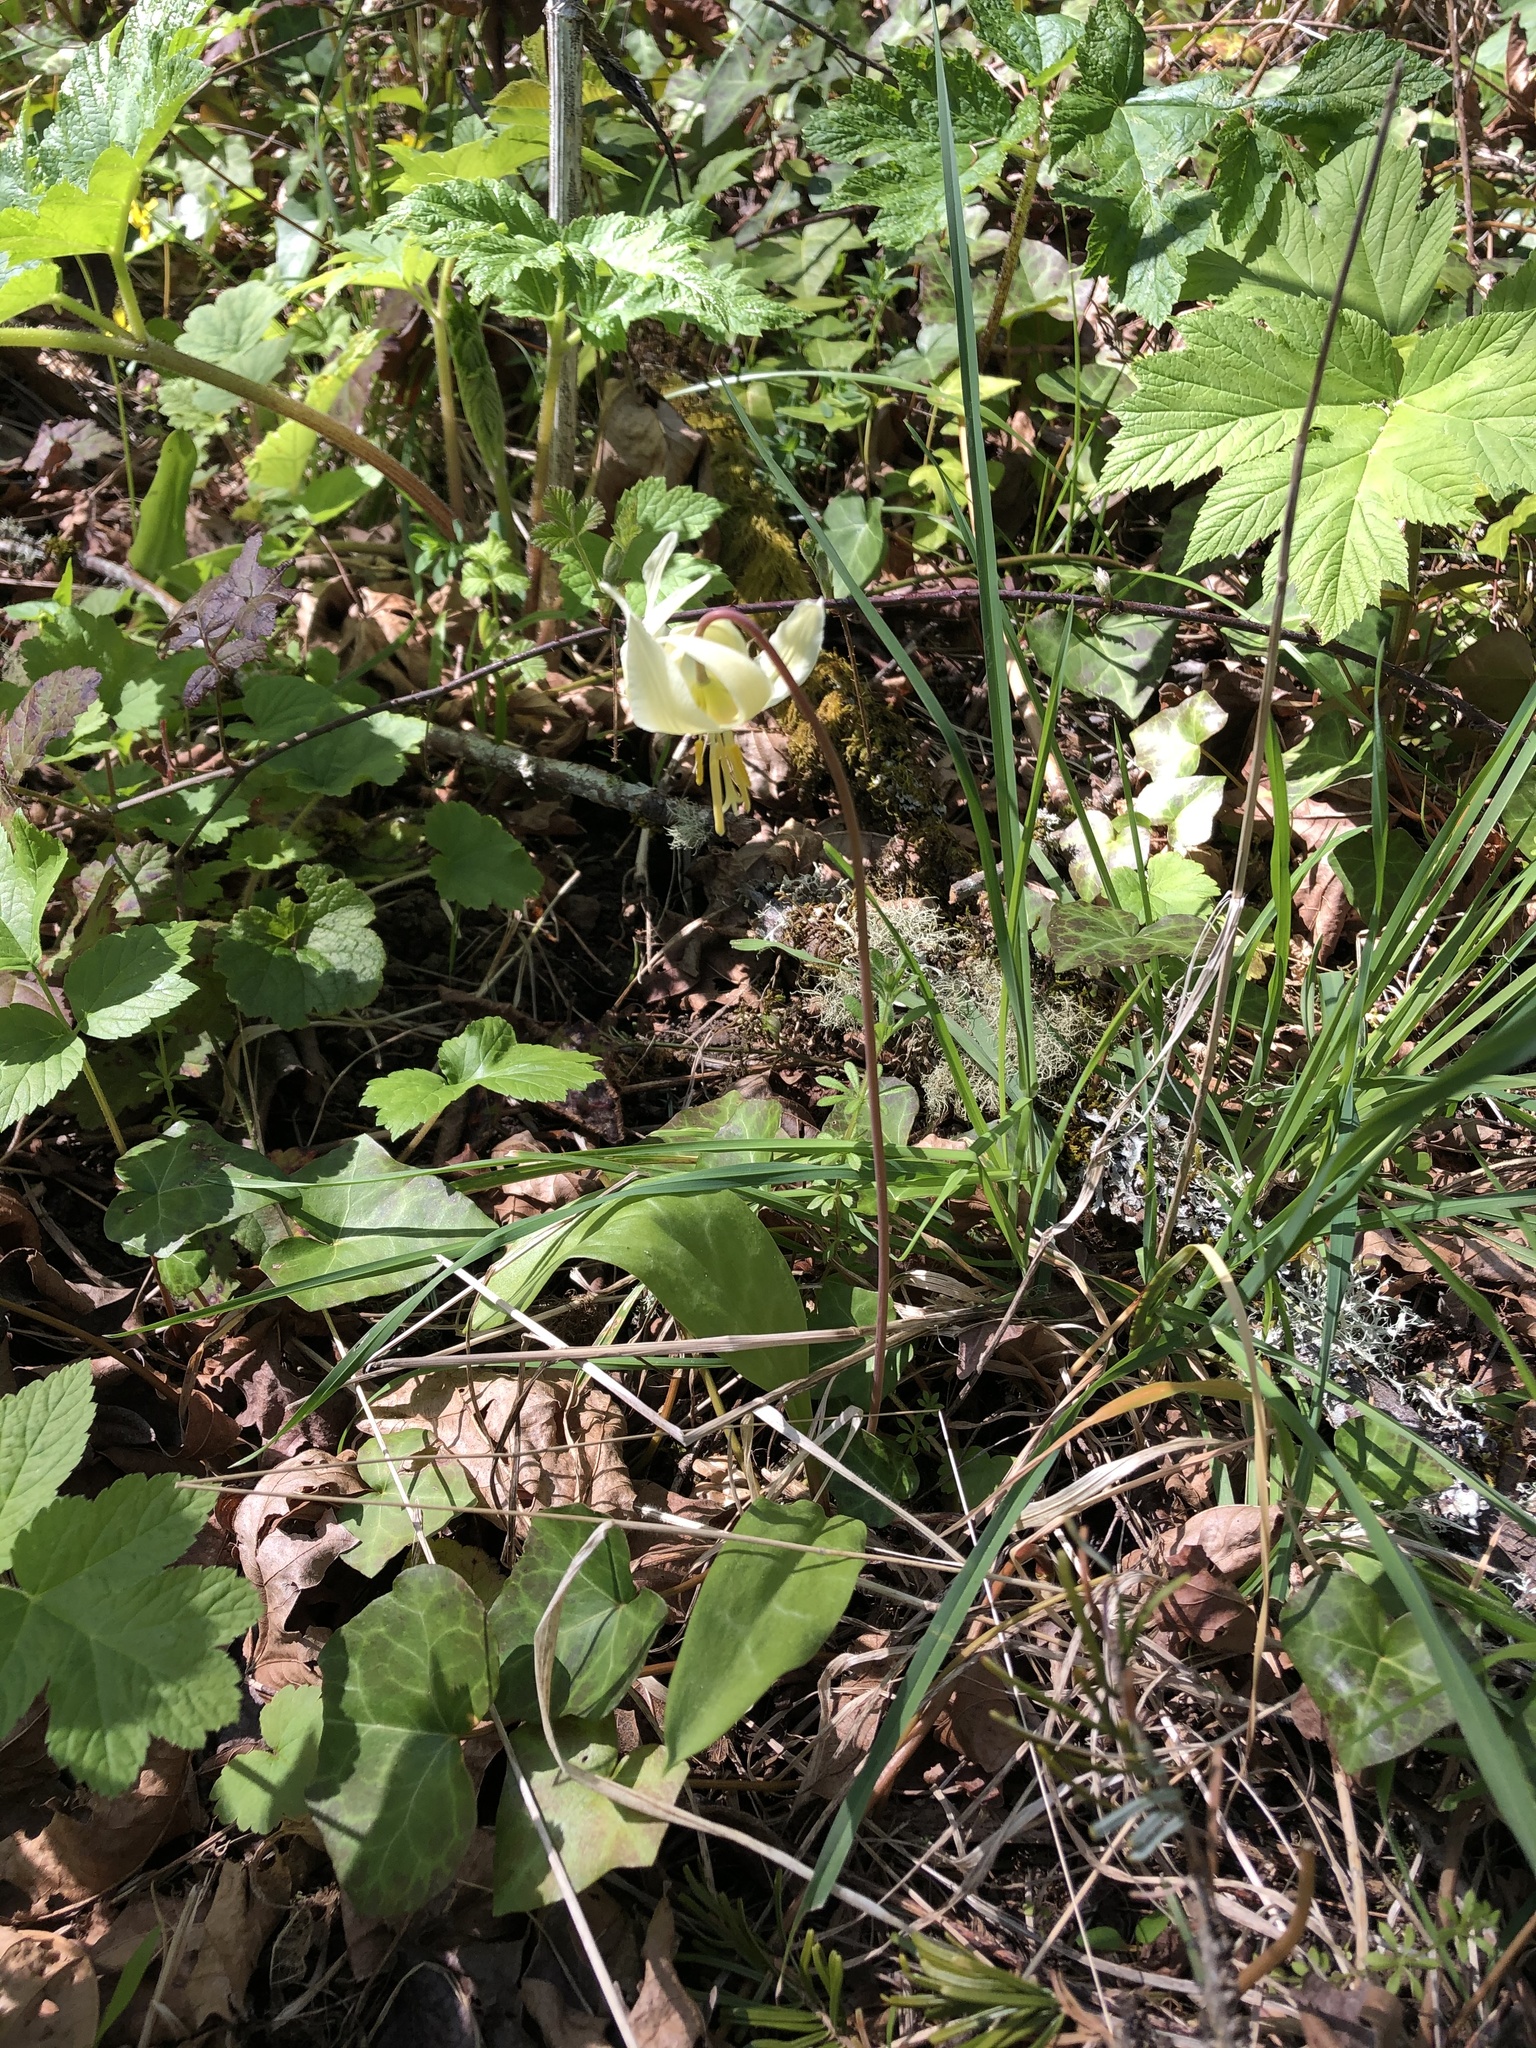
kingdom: Plantae
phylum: Tracheophyta
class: Liliopsida
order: Liliales
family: Liliaceae
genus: Erythronium
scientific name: Erythronium oregonum
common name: Giant adder's-tongue
